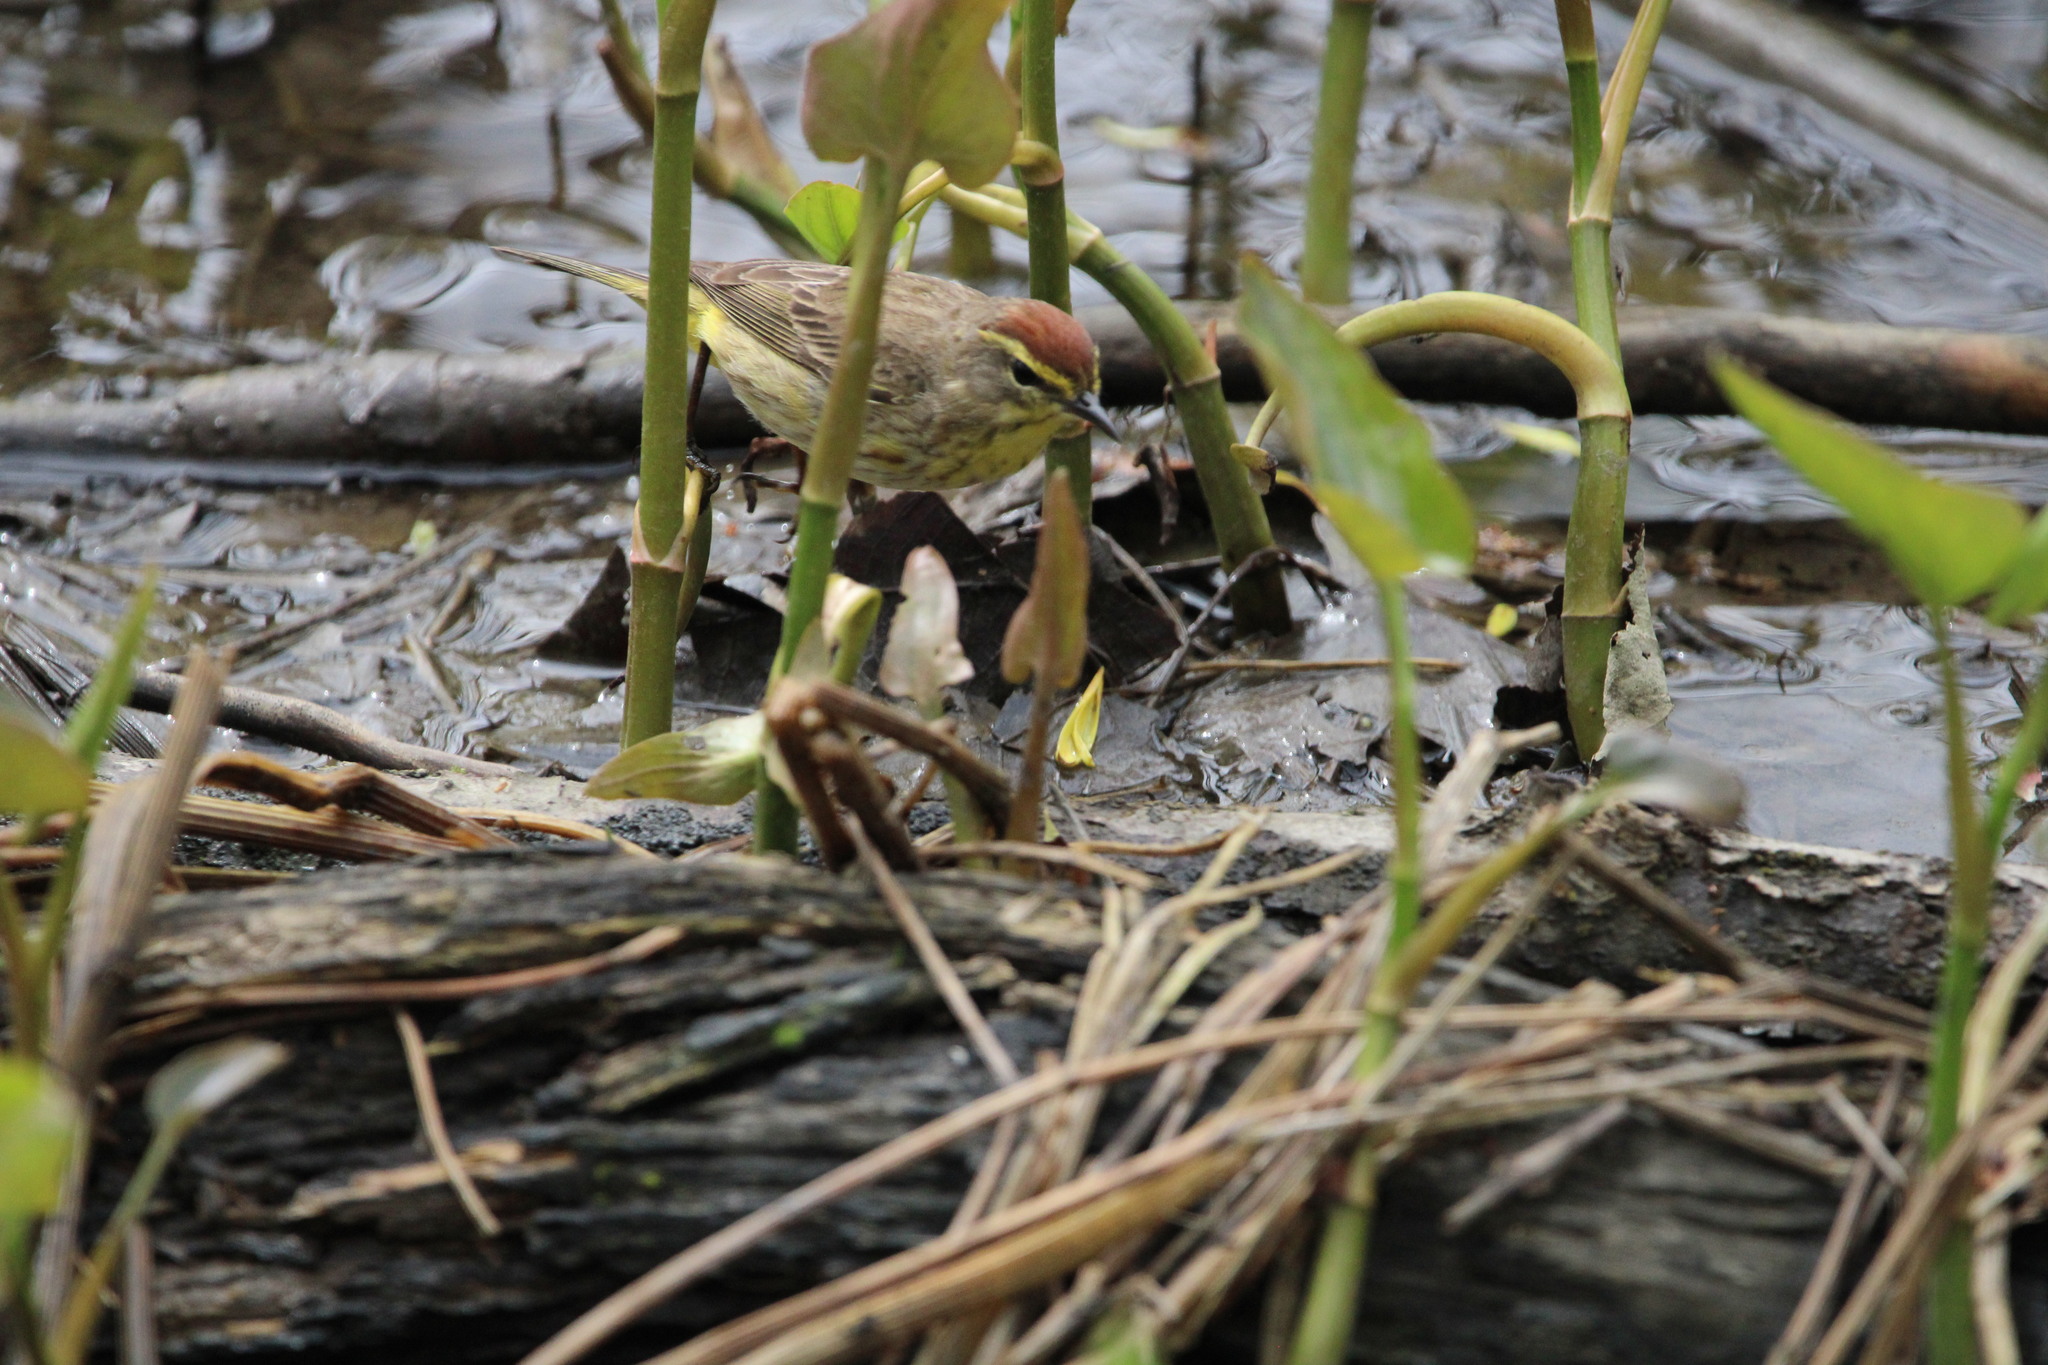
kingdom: Animalia
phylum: Chordata
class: Aves
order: Passeriformes
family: Parulidae
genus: Setophaga
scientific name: Setophaga palmarum
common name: Palm warbler
